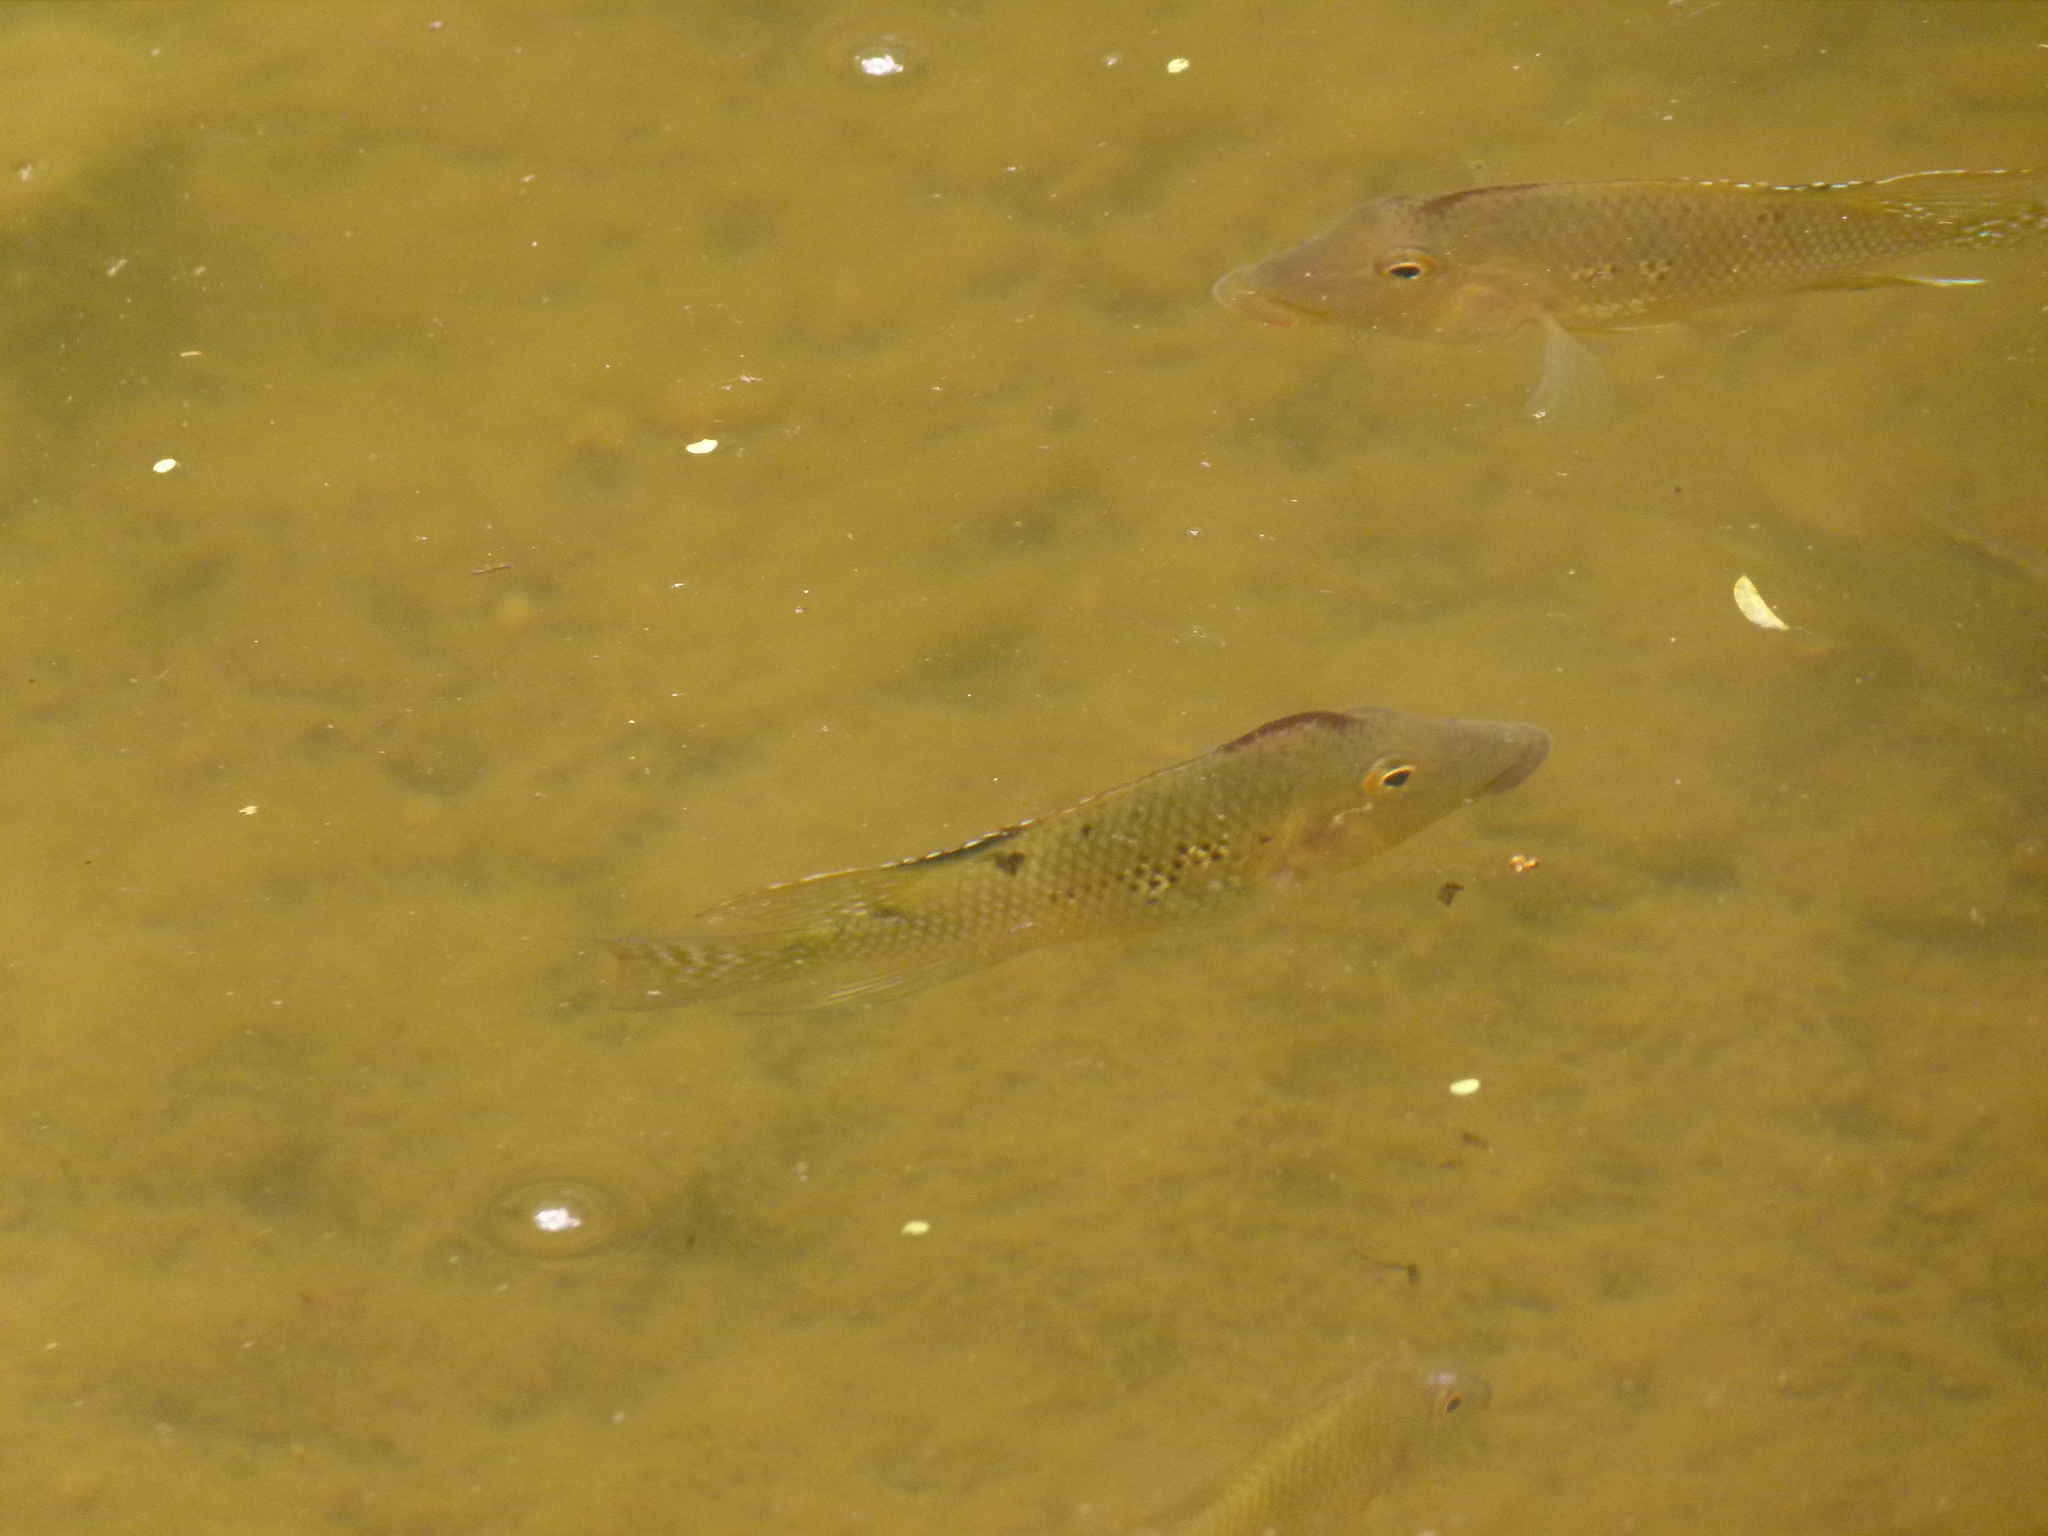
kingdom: Animalia
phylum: Chordata
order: Perciformes
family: Cichlidae
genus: Geophagus
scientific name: Geophagus steindachneri
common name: Redhump eartheater
